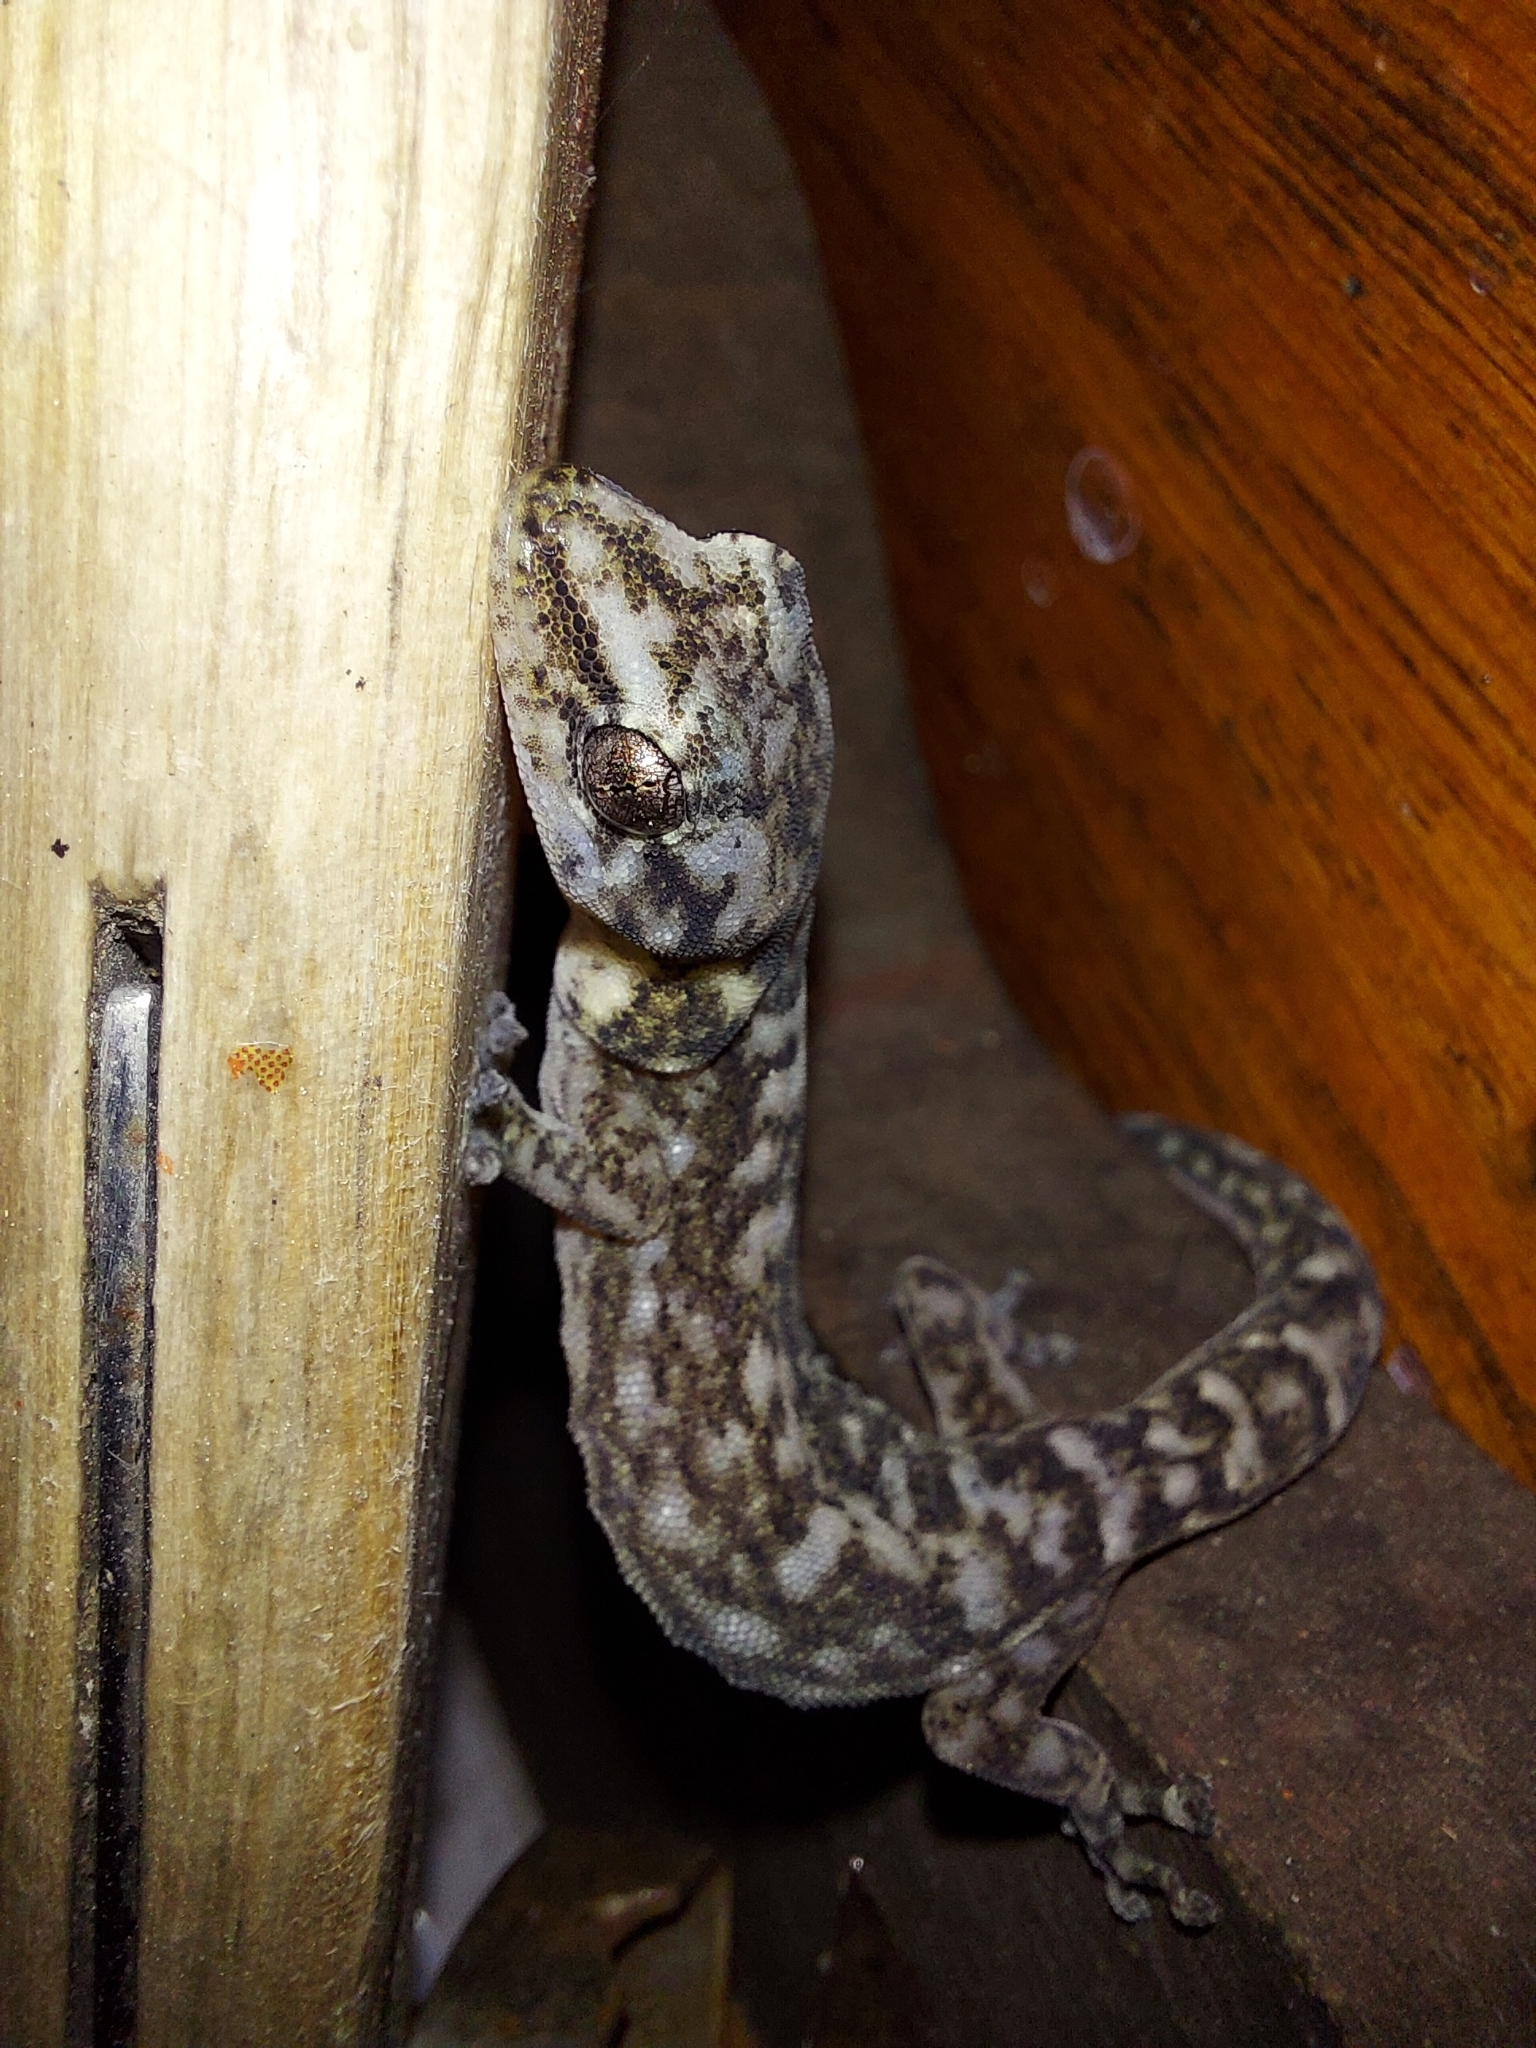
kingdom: Animalia
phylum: Chordata
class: Squamata
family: Gekkonidae
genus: Afrogecko
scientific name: Afrogecko porphyreus
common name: Marbled leaf-toed gecko
